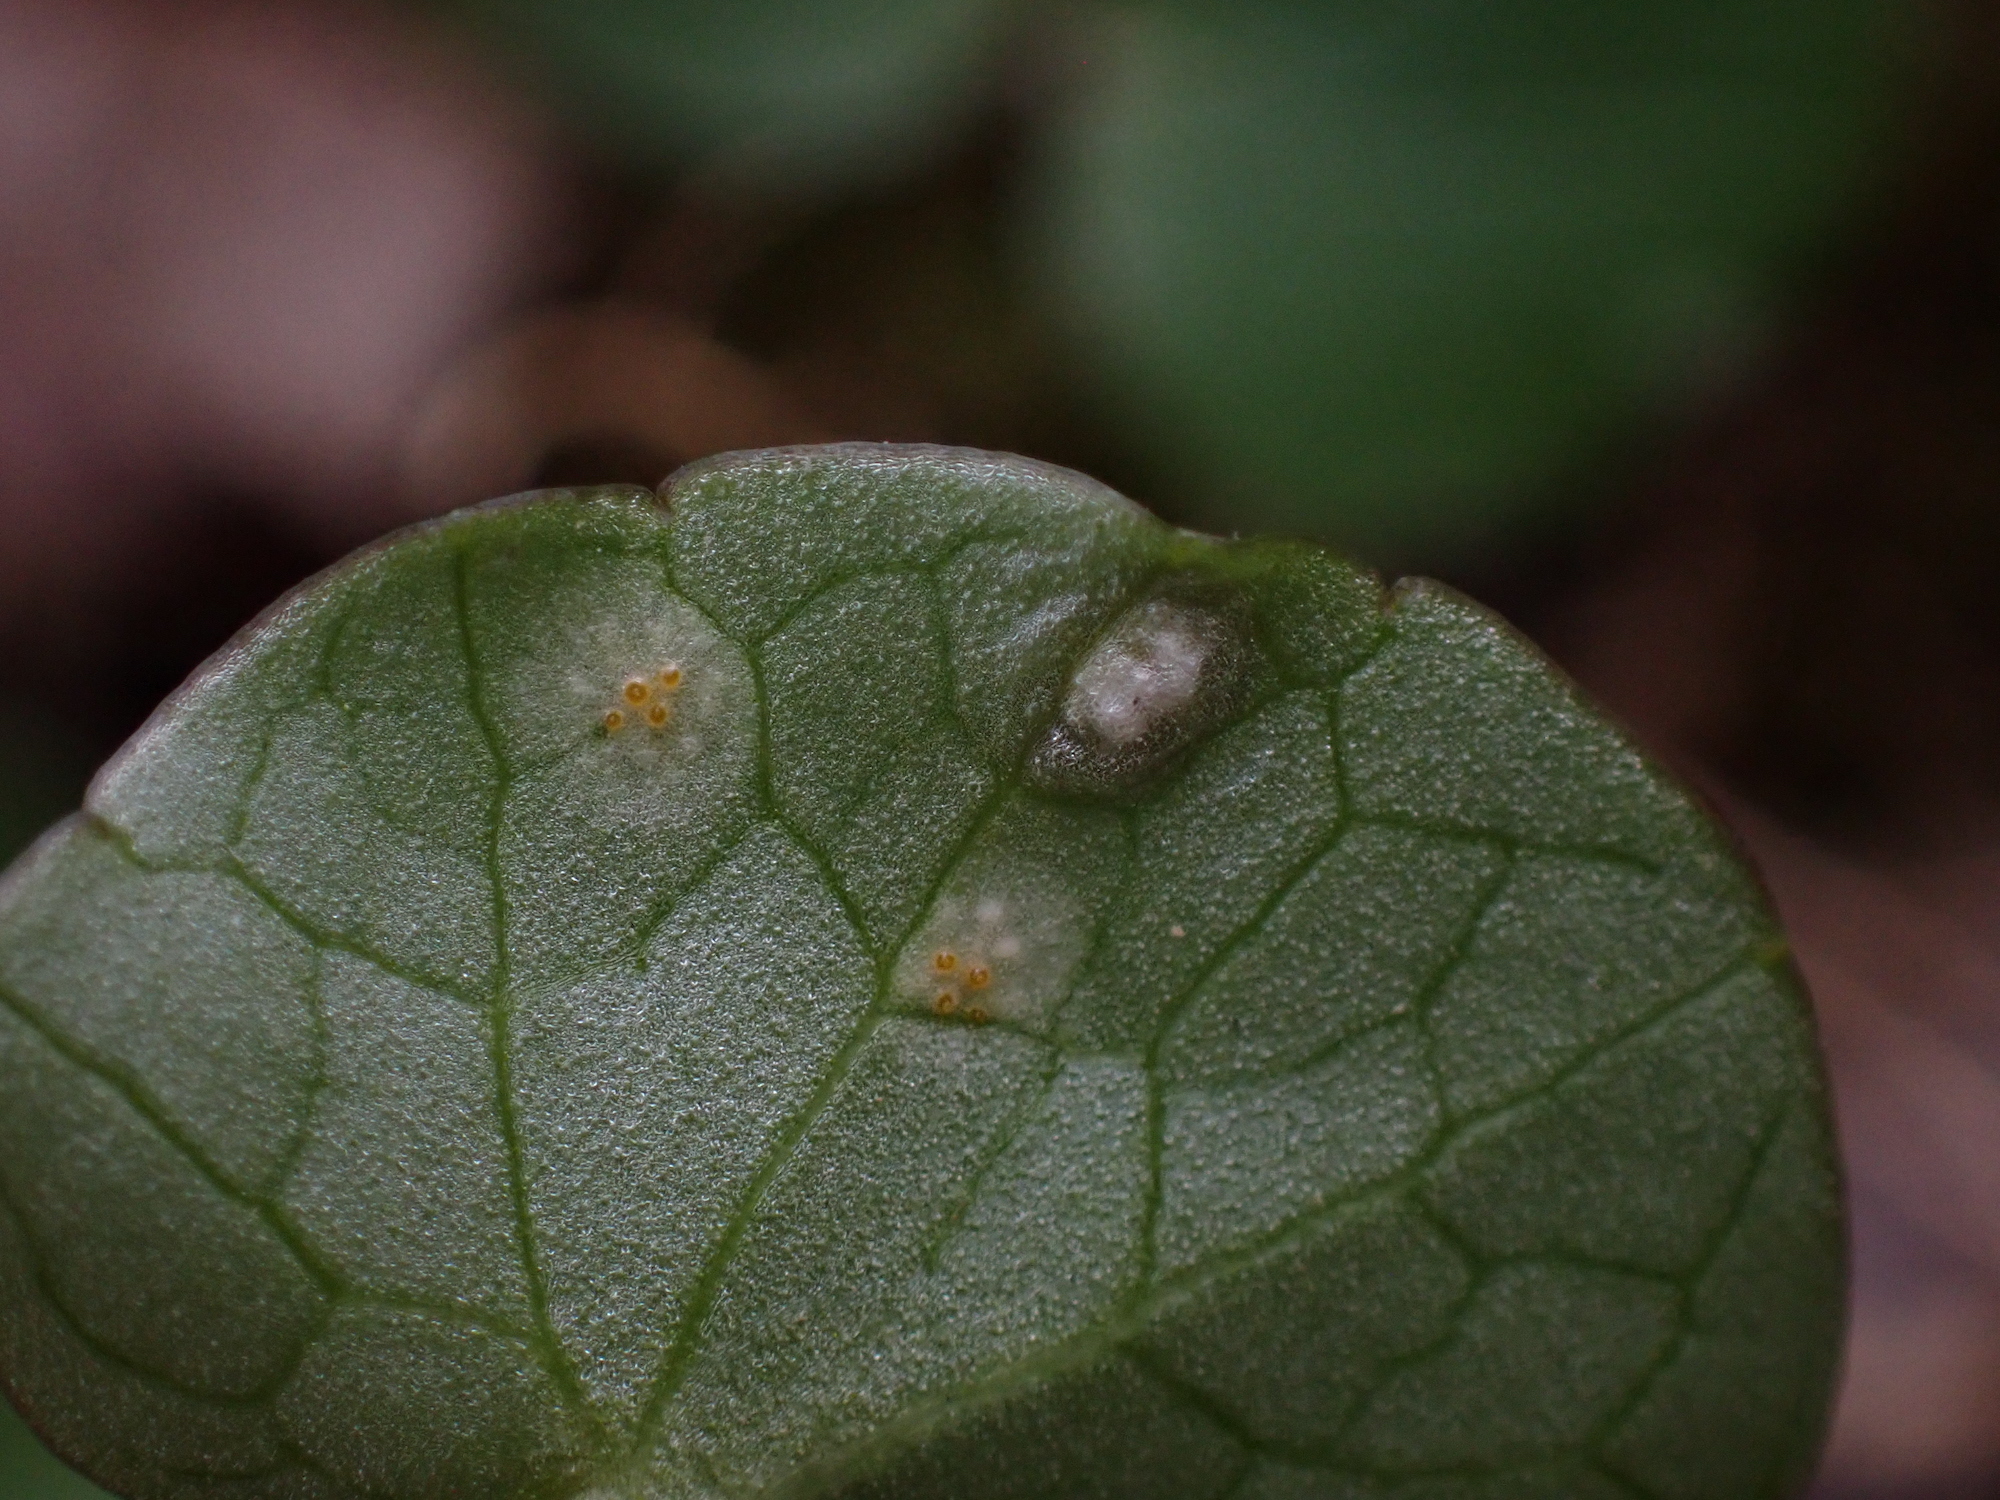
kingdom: Fungi
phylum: Basidiomycota
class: Ustilaginomycetes
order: Urocystidales
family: Urocystidaceae
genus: Urocystis
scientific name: Urocystis ficariae
